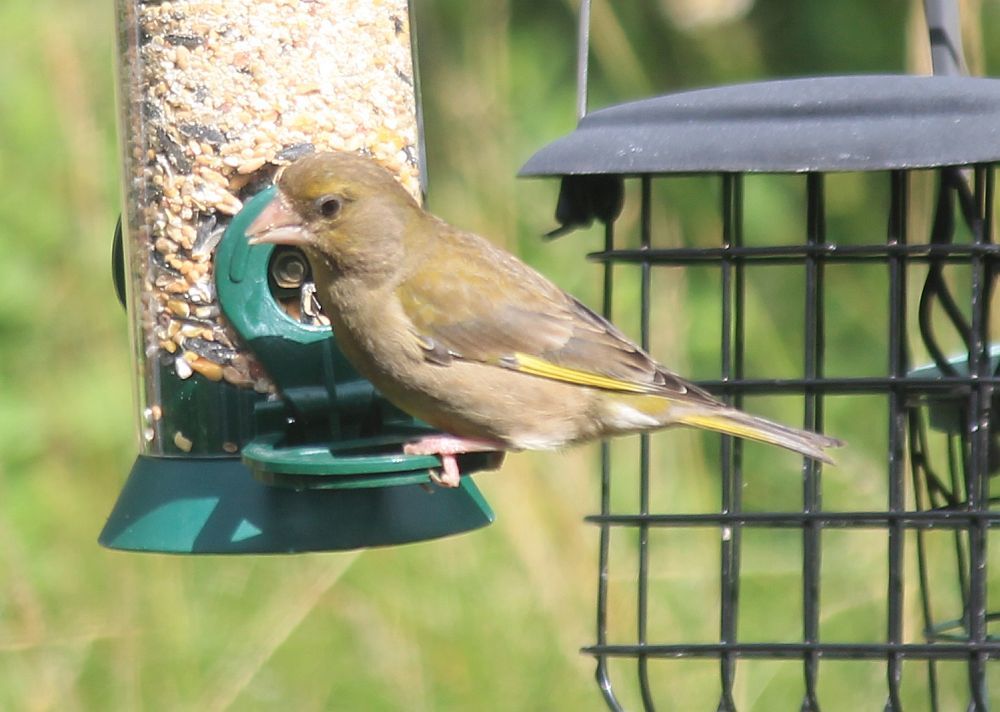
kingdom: Plantae
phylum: Tracheophyta
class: Liliopsida
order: Poales
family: Poaceae
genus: Chloris
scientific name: Chloris chloris
